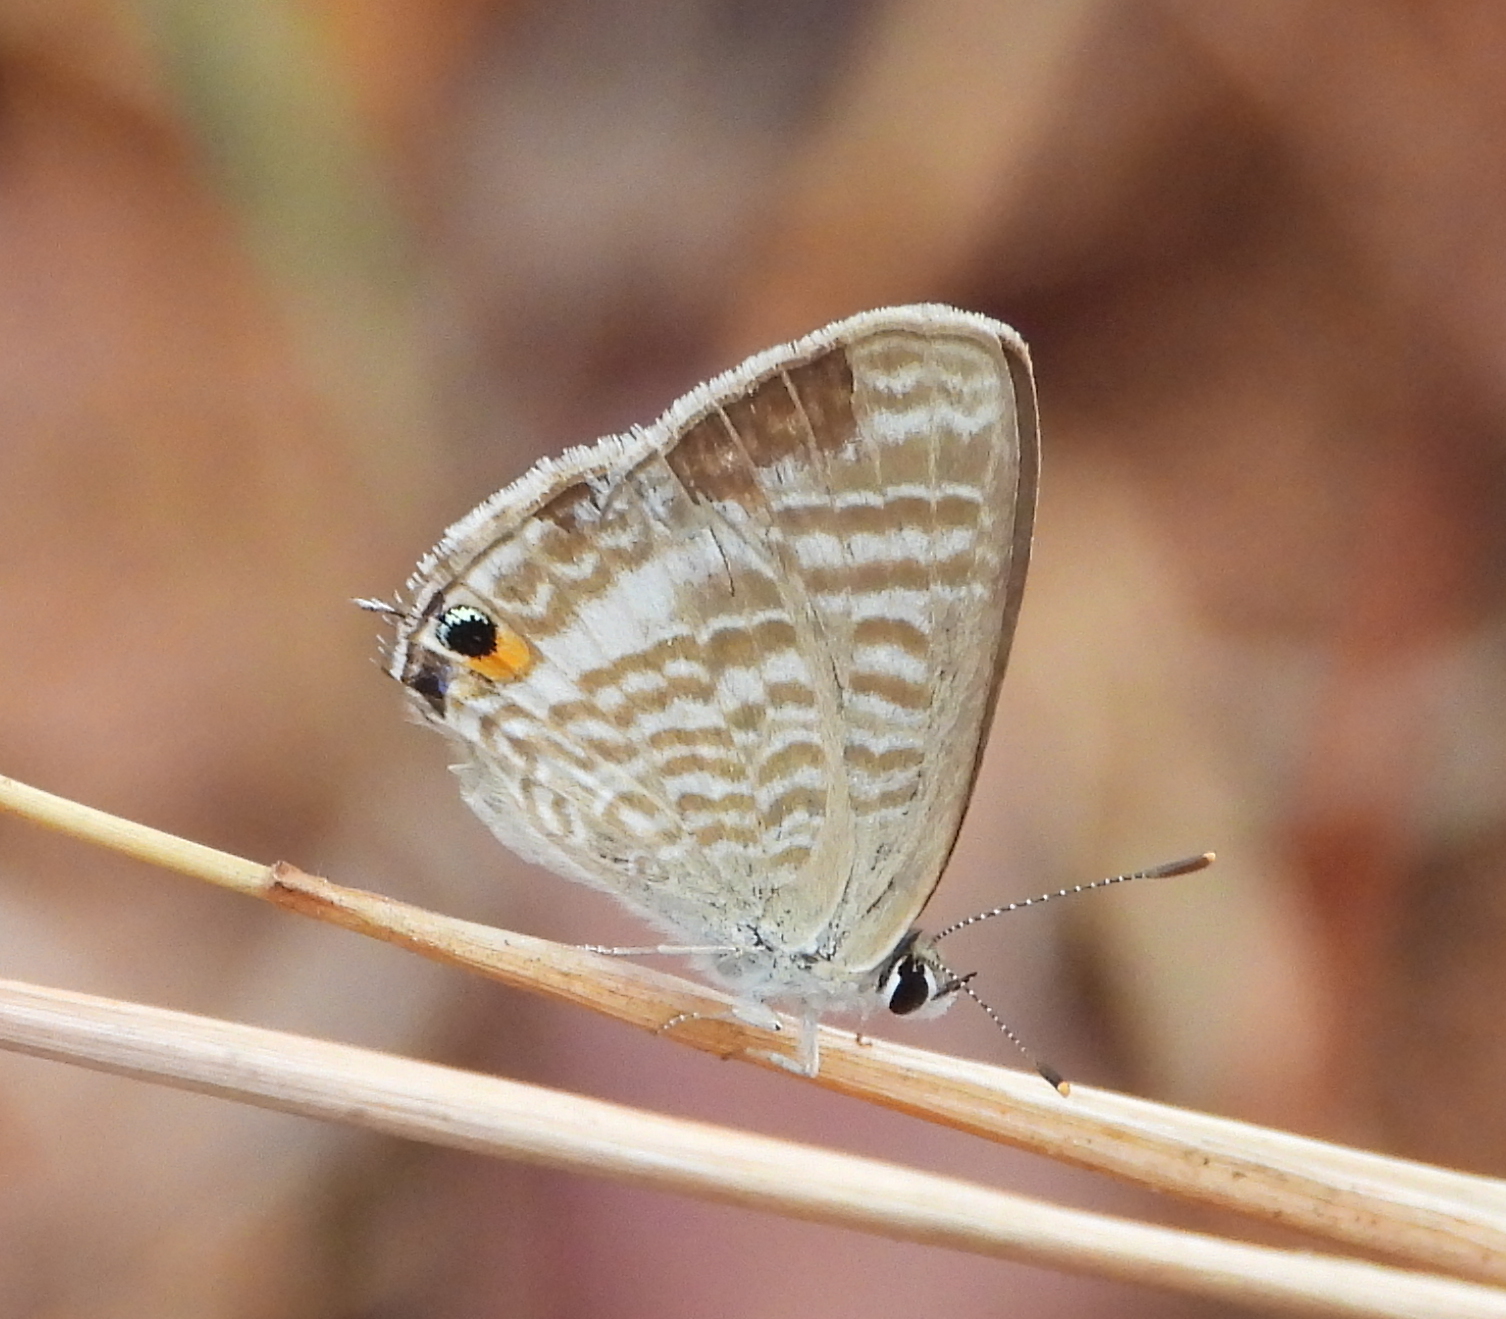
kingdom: Animalia
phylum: Arthropoda
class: Insecta
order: Lepidoptera
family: Lycaenidae
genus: Lampides
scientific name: Lampides boeticus
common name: Long-tailed blue
